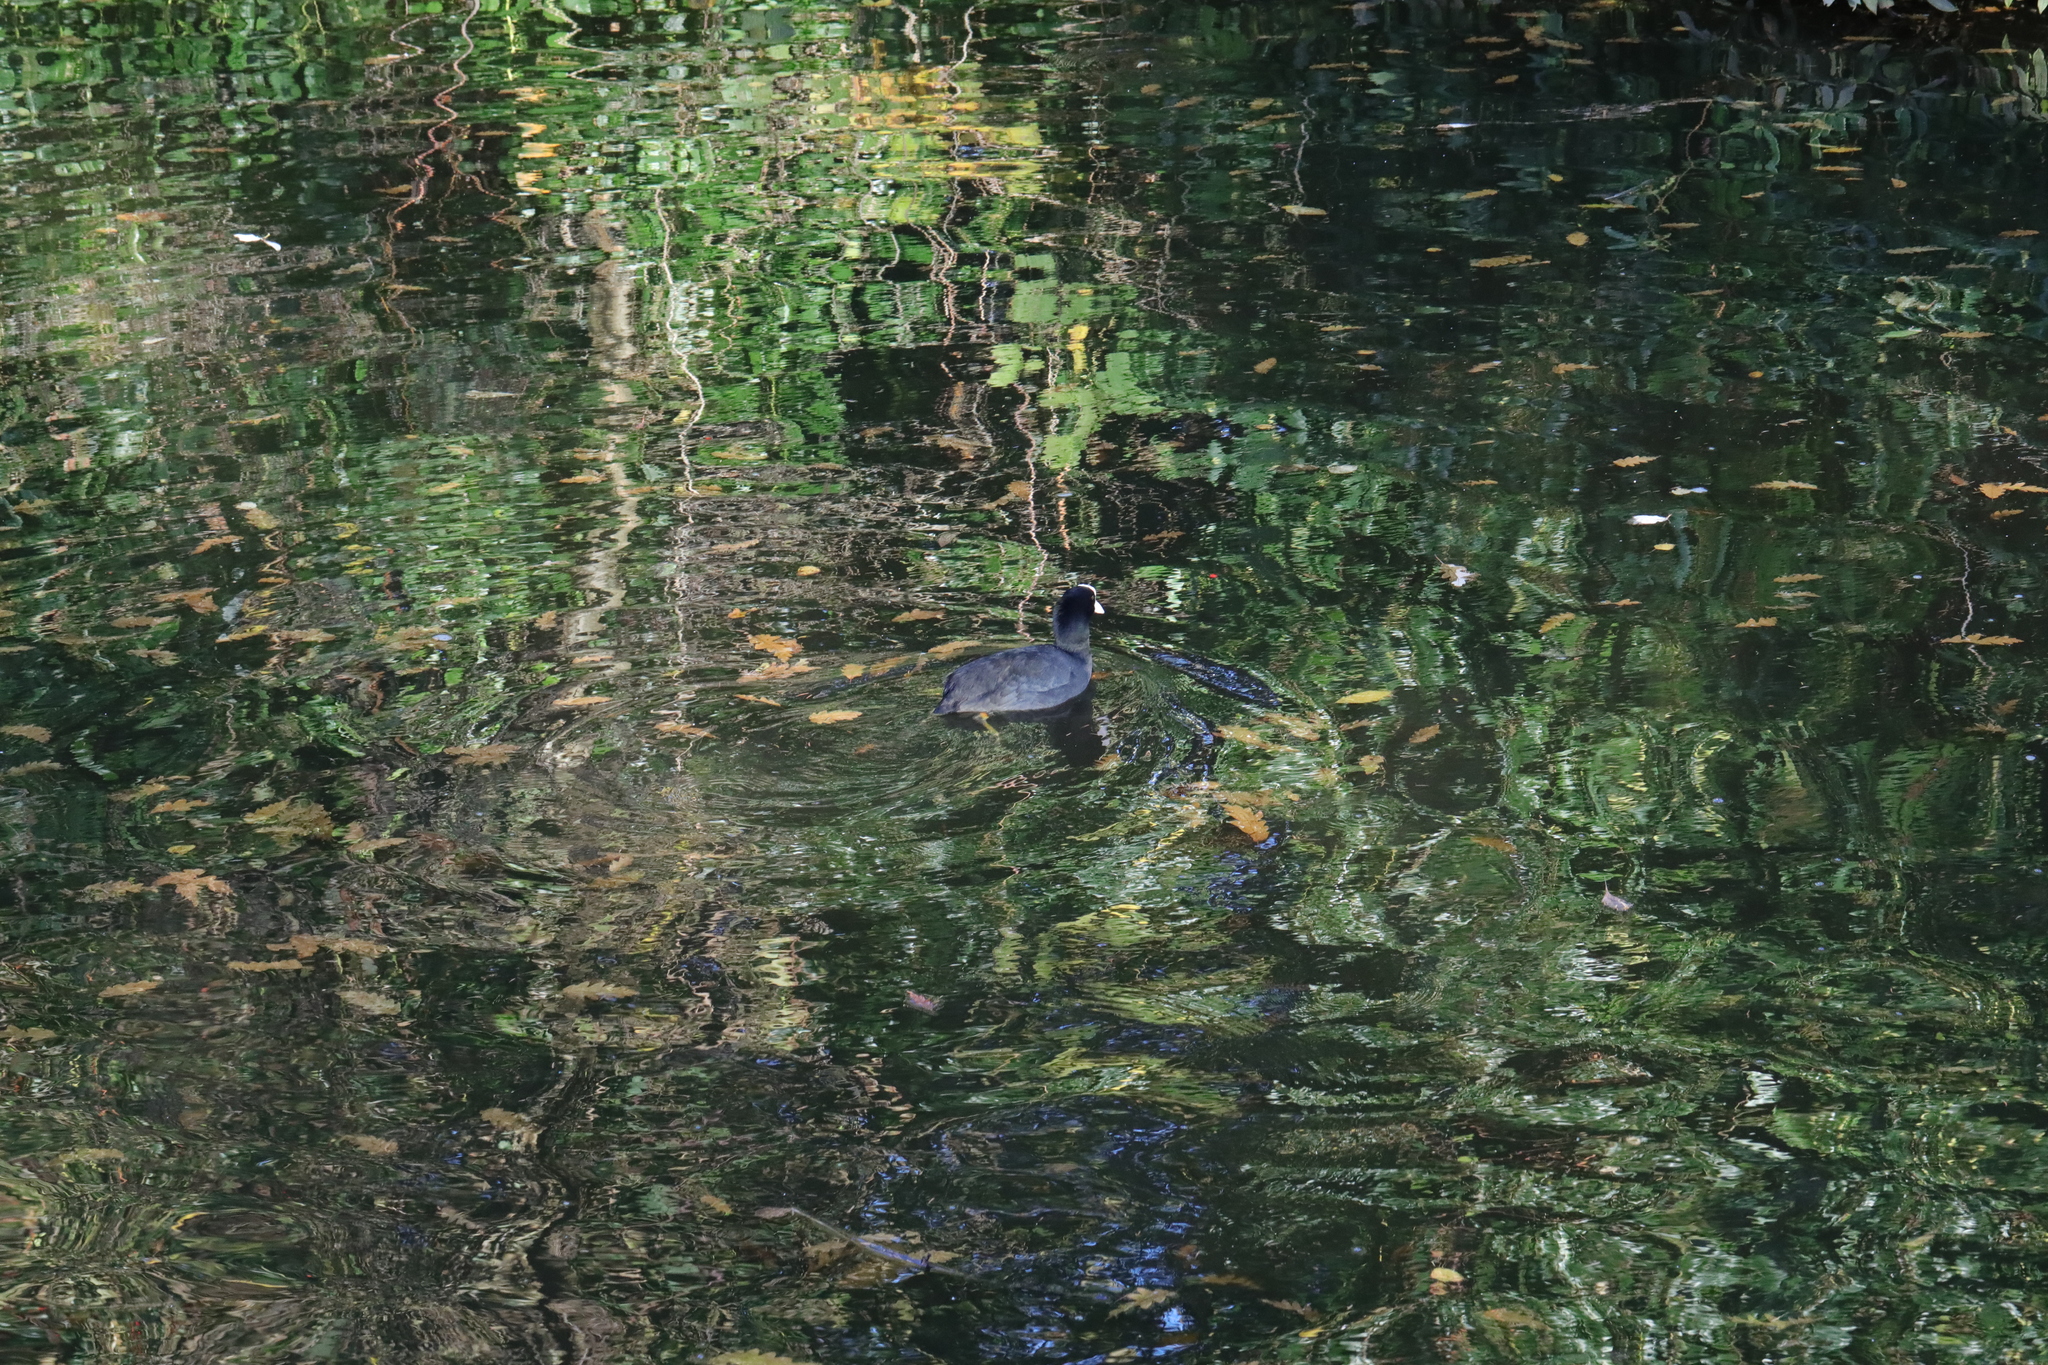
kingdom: Animalia
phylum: Chordata
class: Aves
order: Gruiformes
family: Rallidae
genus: Fulica
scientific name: Fulica atra
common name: Eurasian coot
